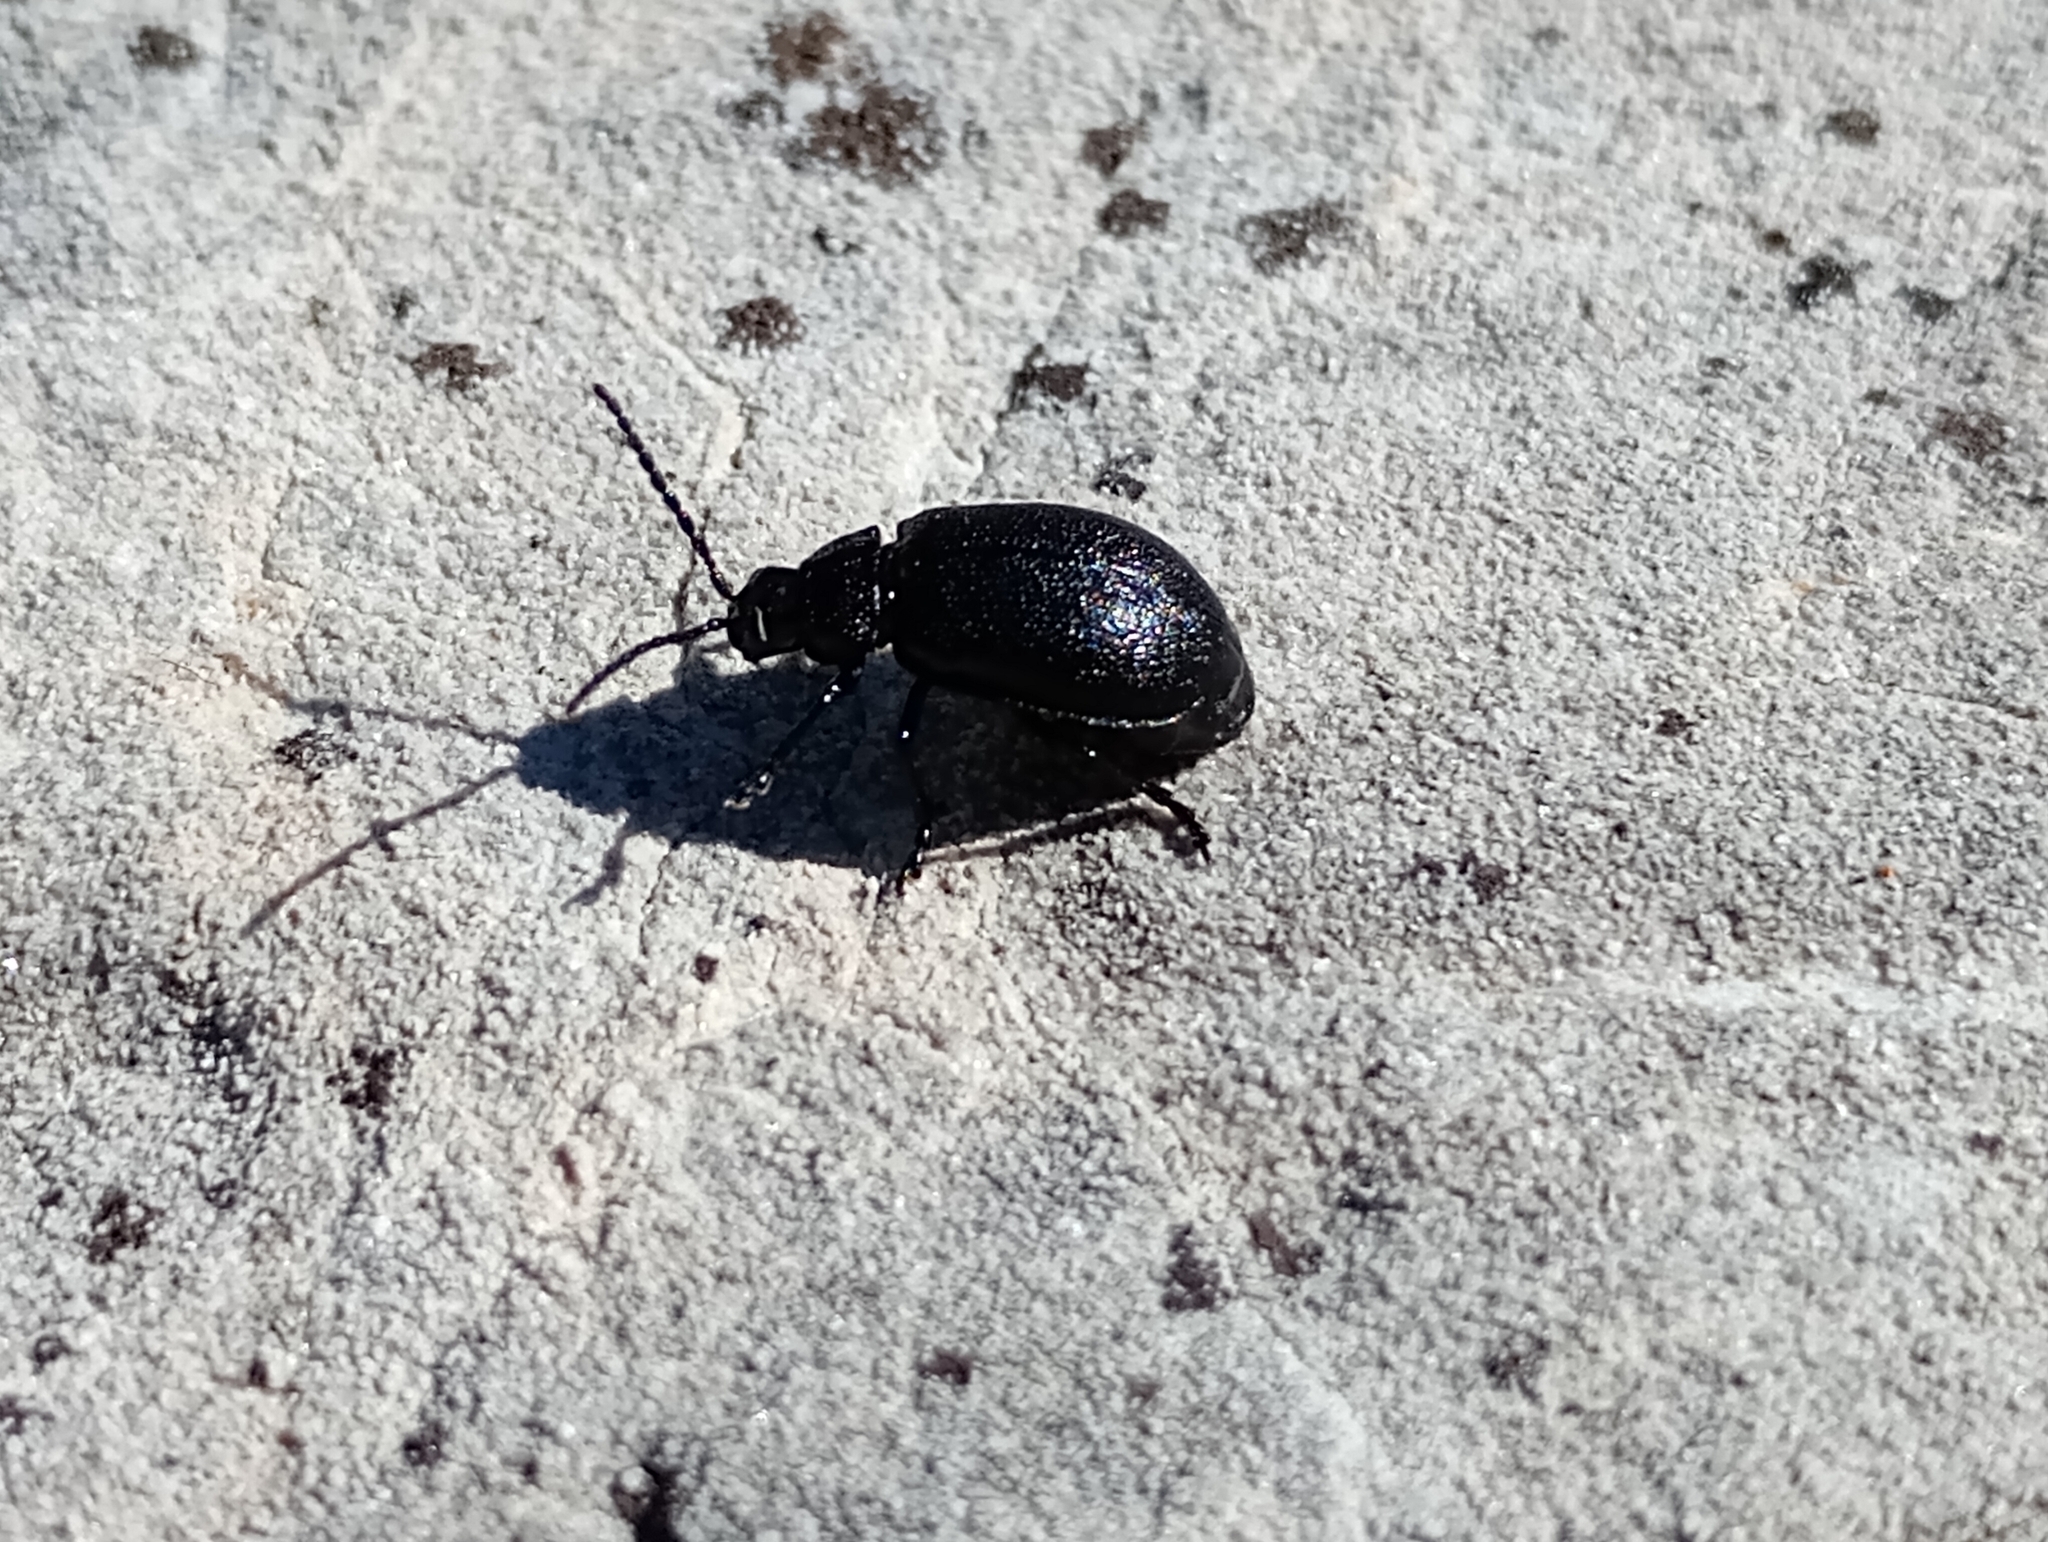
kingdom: Animalia
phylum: Arthropoda
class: Insecta
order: Coleoptera
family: Chrysomelidae
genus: Galeruca
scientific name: Galeruca tanaceti
